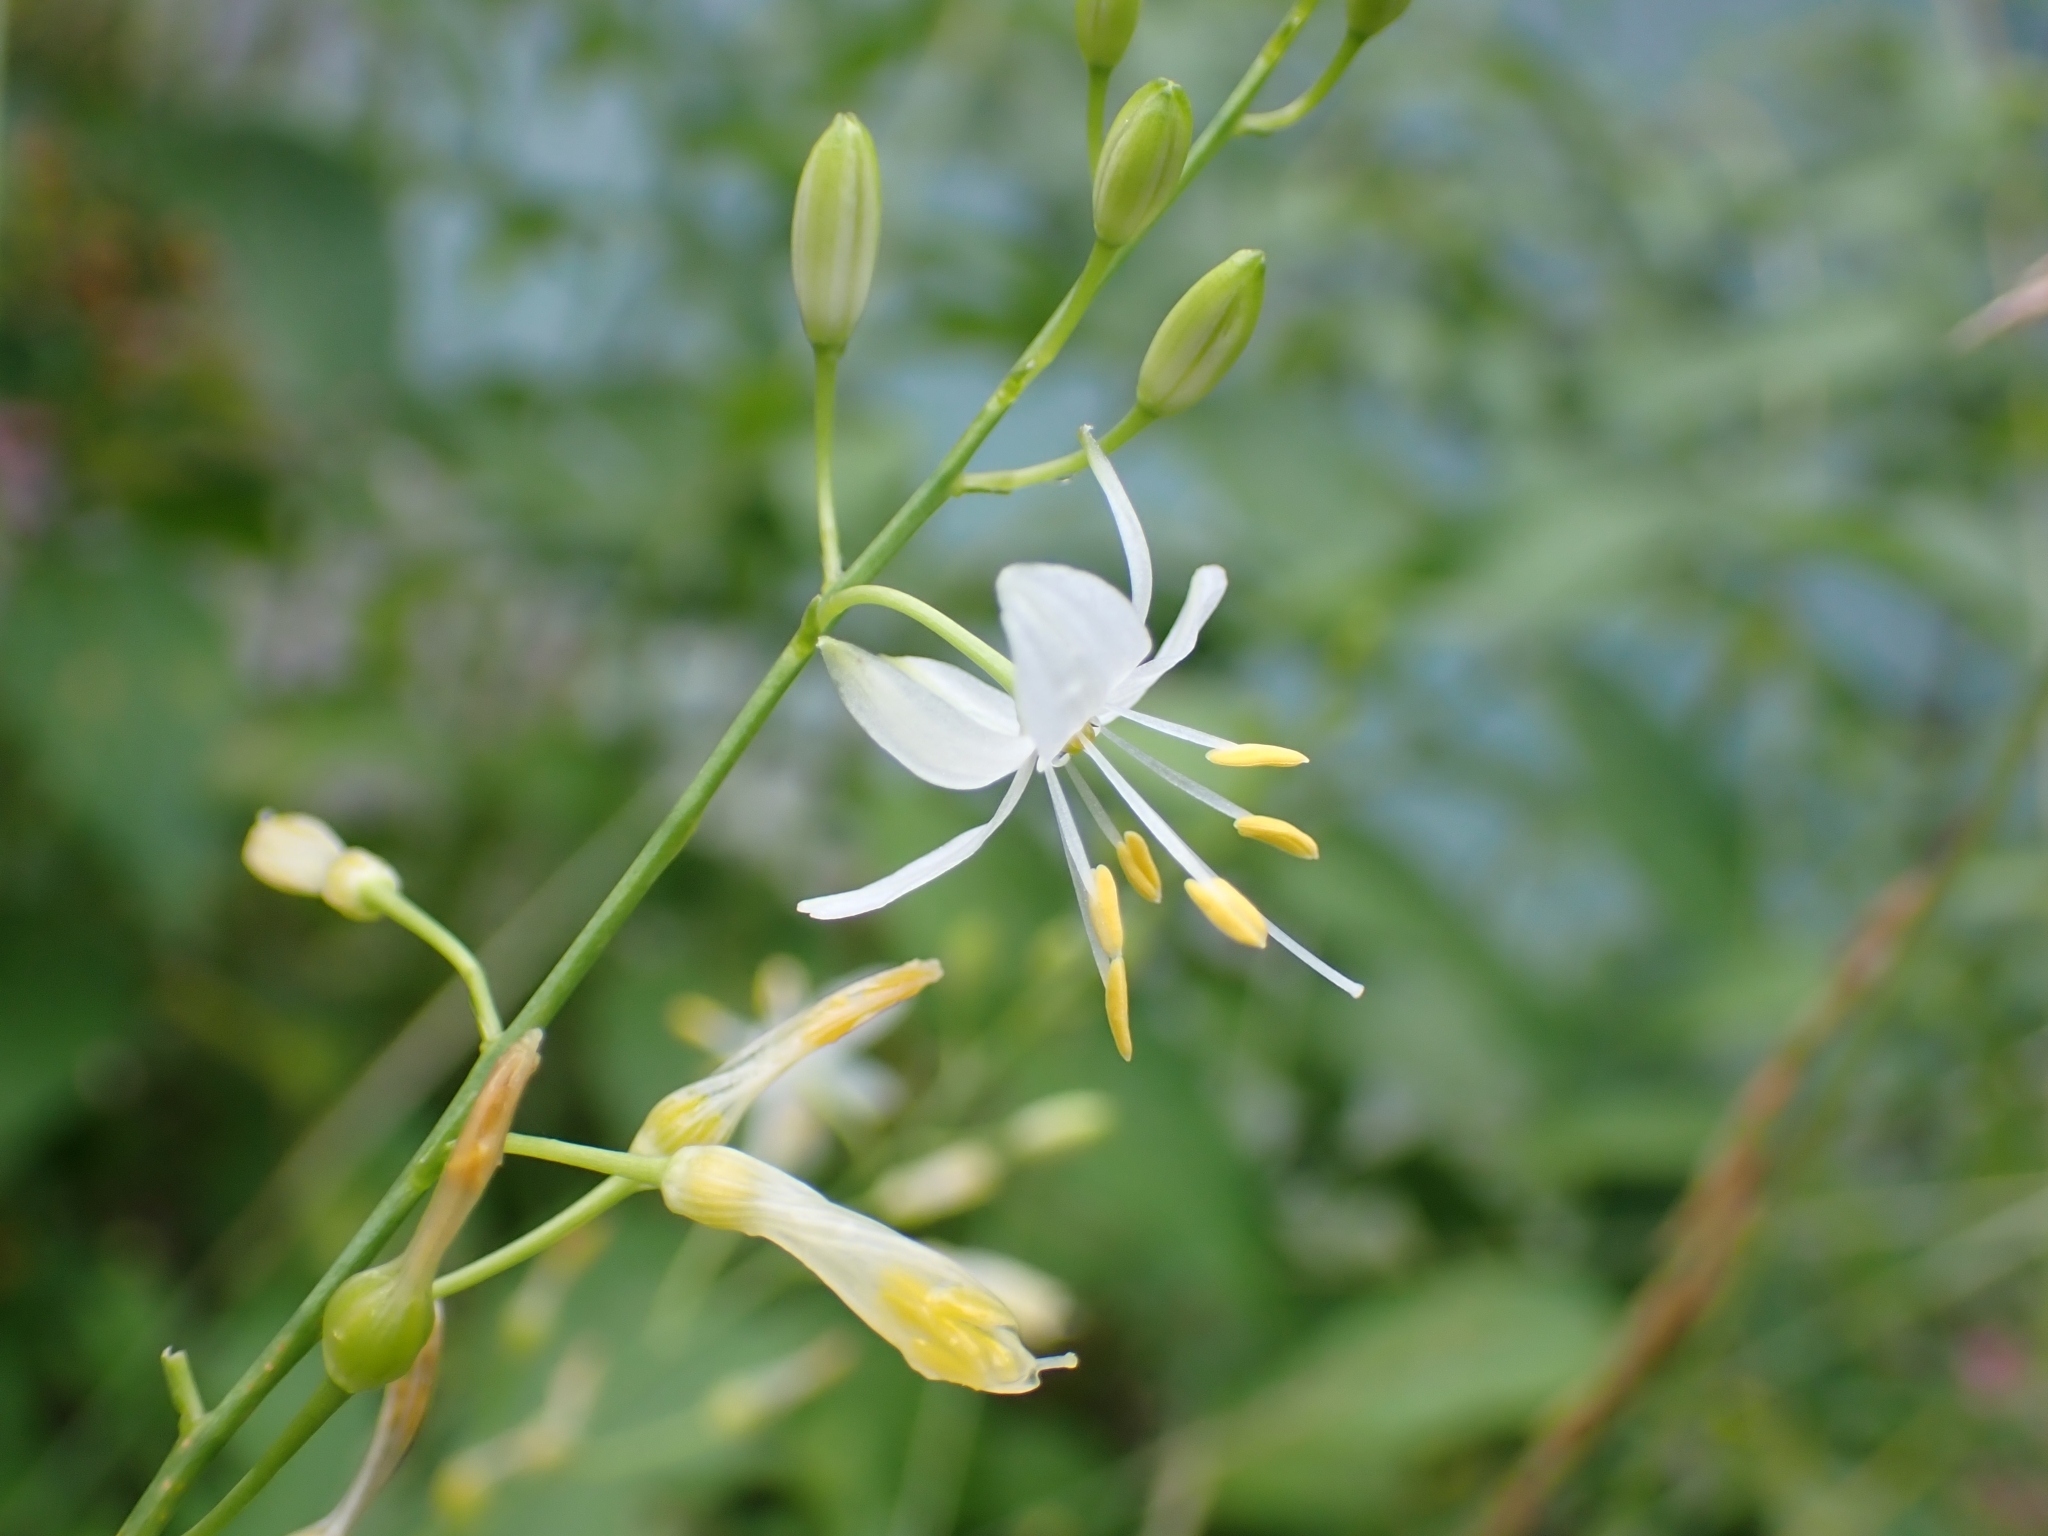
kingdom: Plantae
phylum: Tracheophyta
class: Liliopsida
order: Asparagales
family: Asparagaceae
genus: Anthericum
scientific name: Anthericum ramosum
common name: Branched st. bernard's-lily
